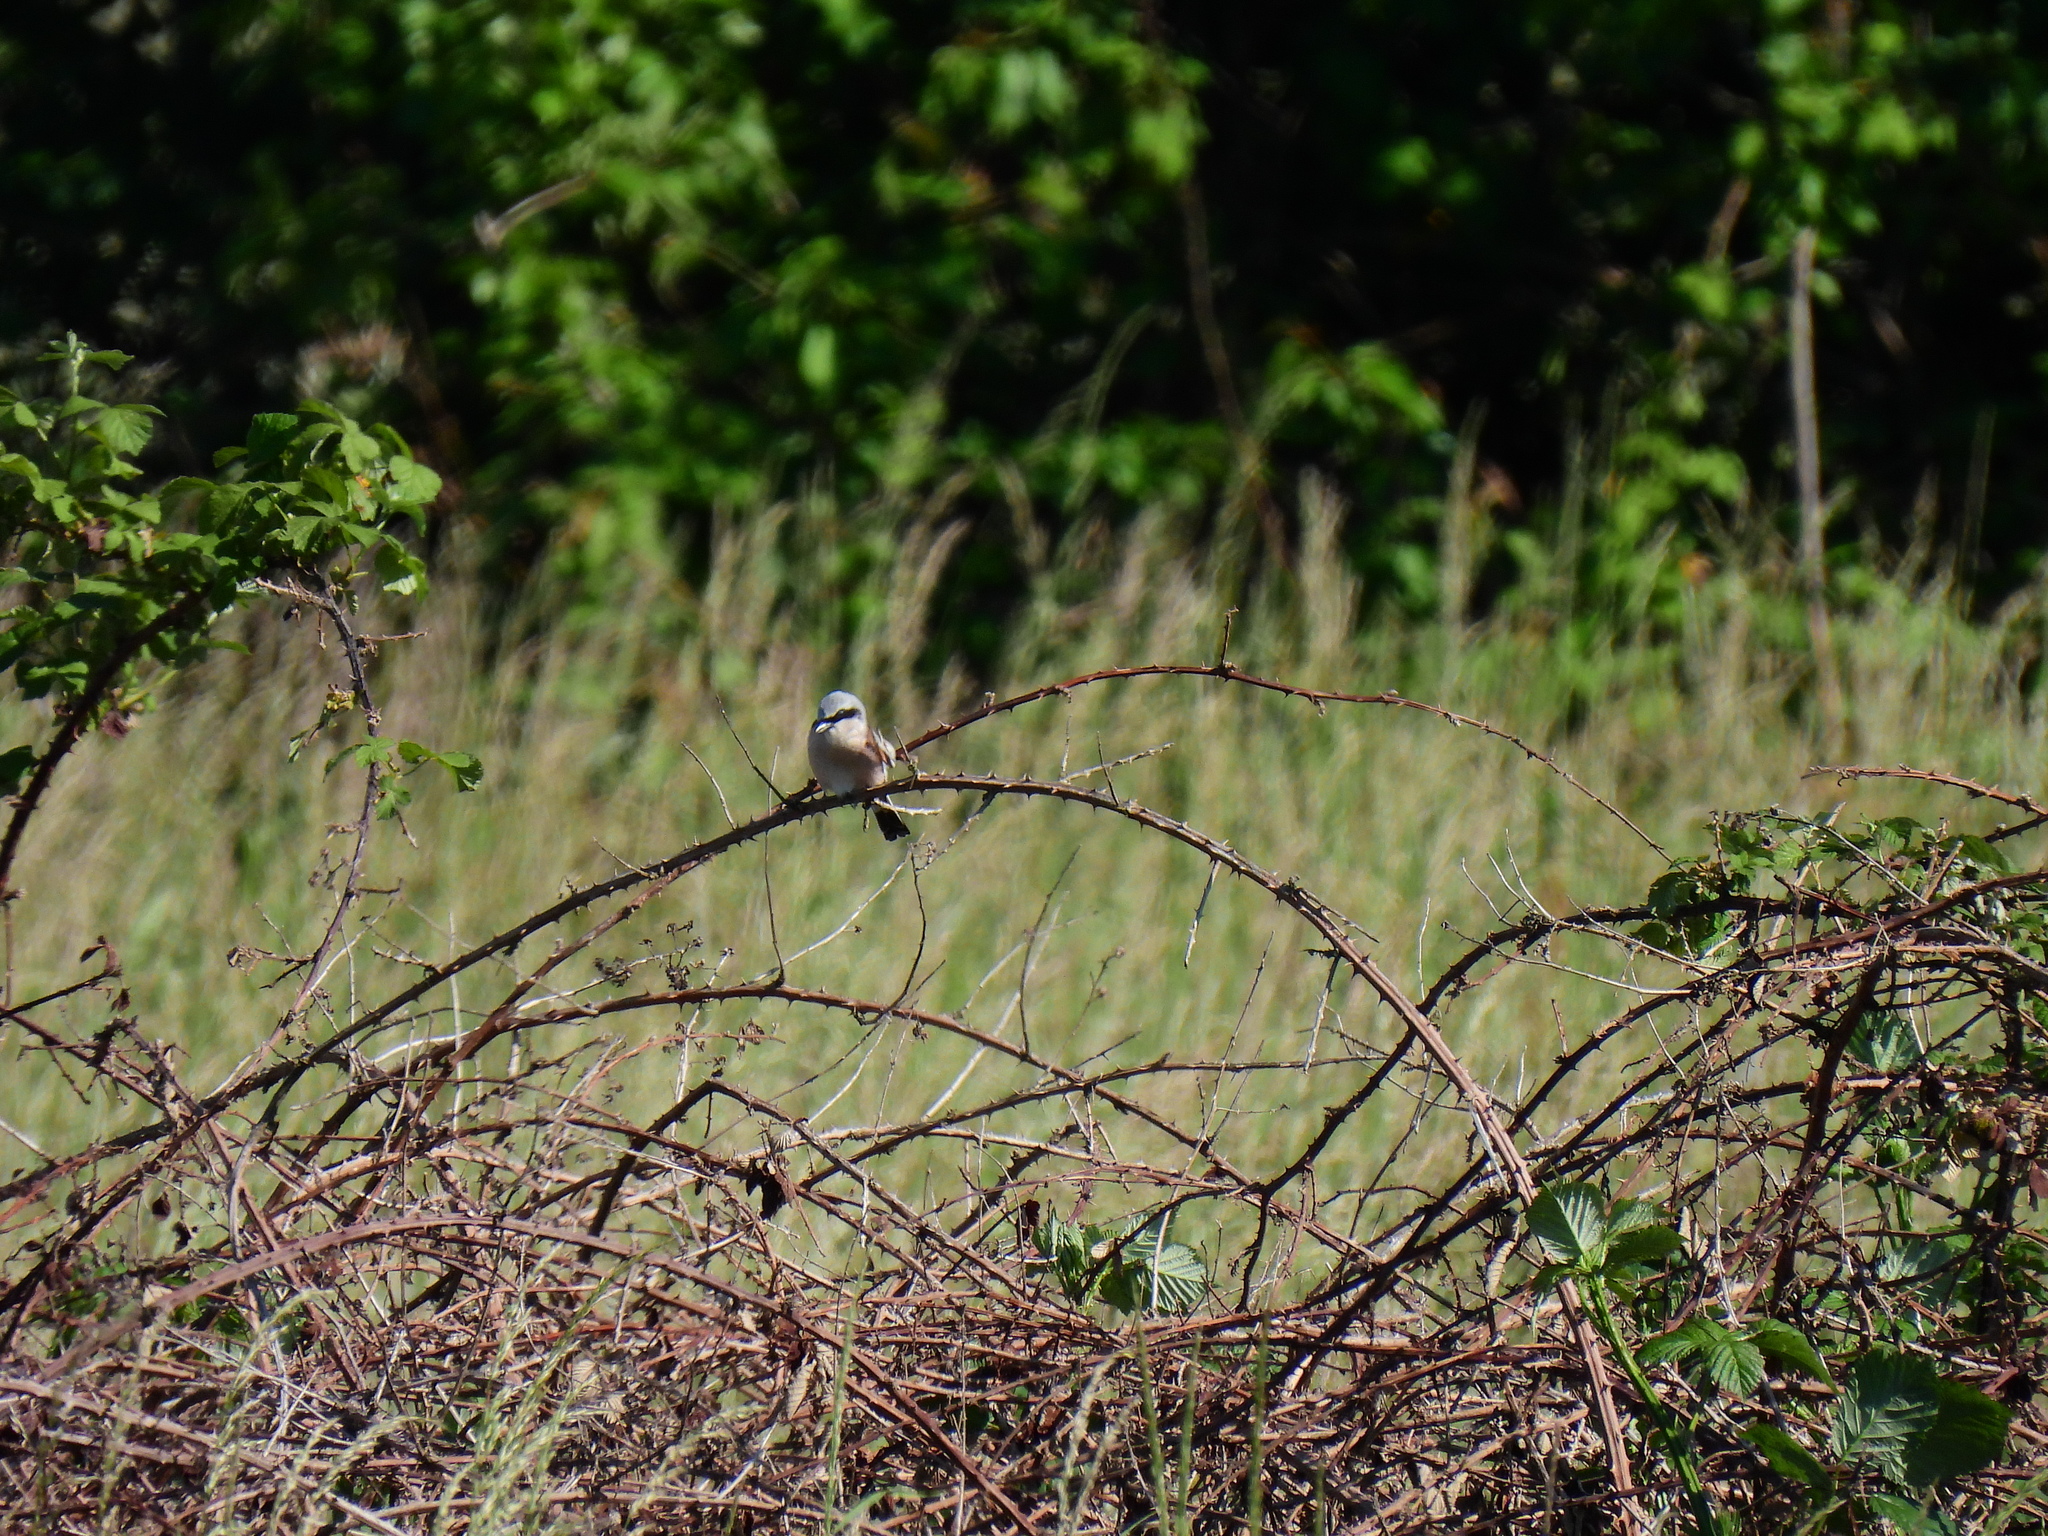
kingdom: Animalia
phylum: Chordata
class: Aves
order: Passeriformes
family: Laniidae
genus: Lanius
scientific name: Lanius collurio
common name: Red-backed shrike
